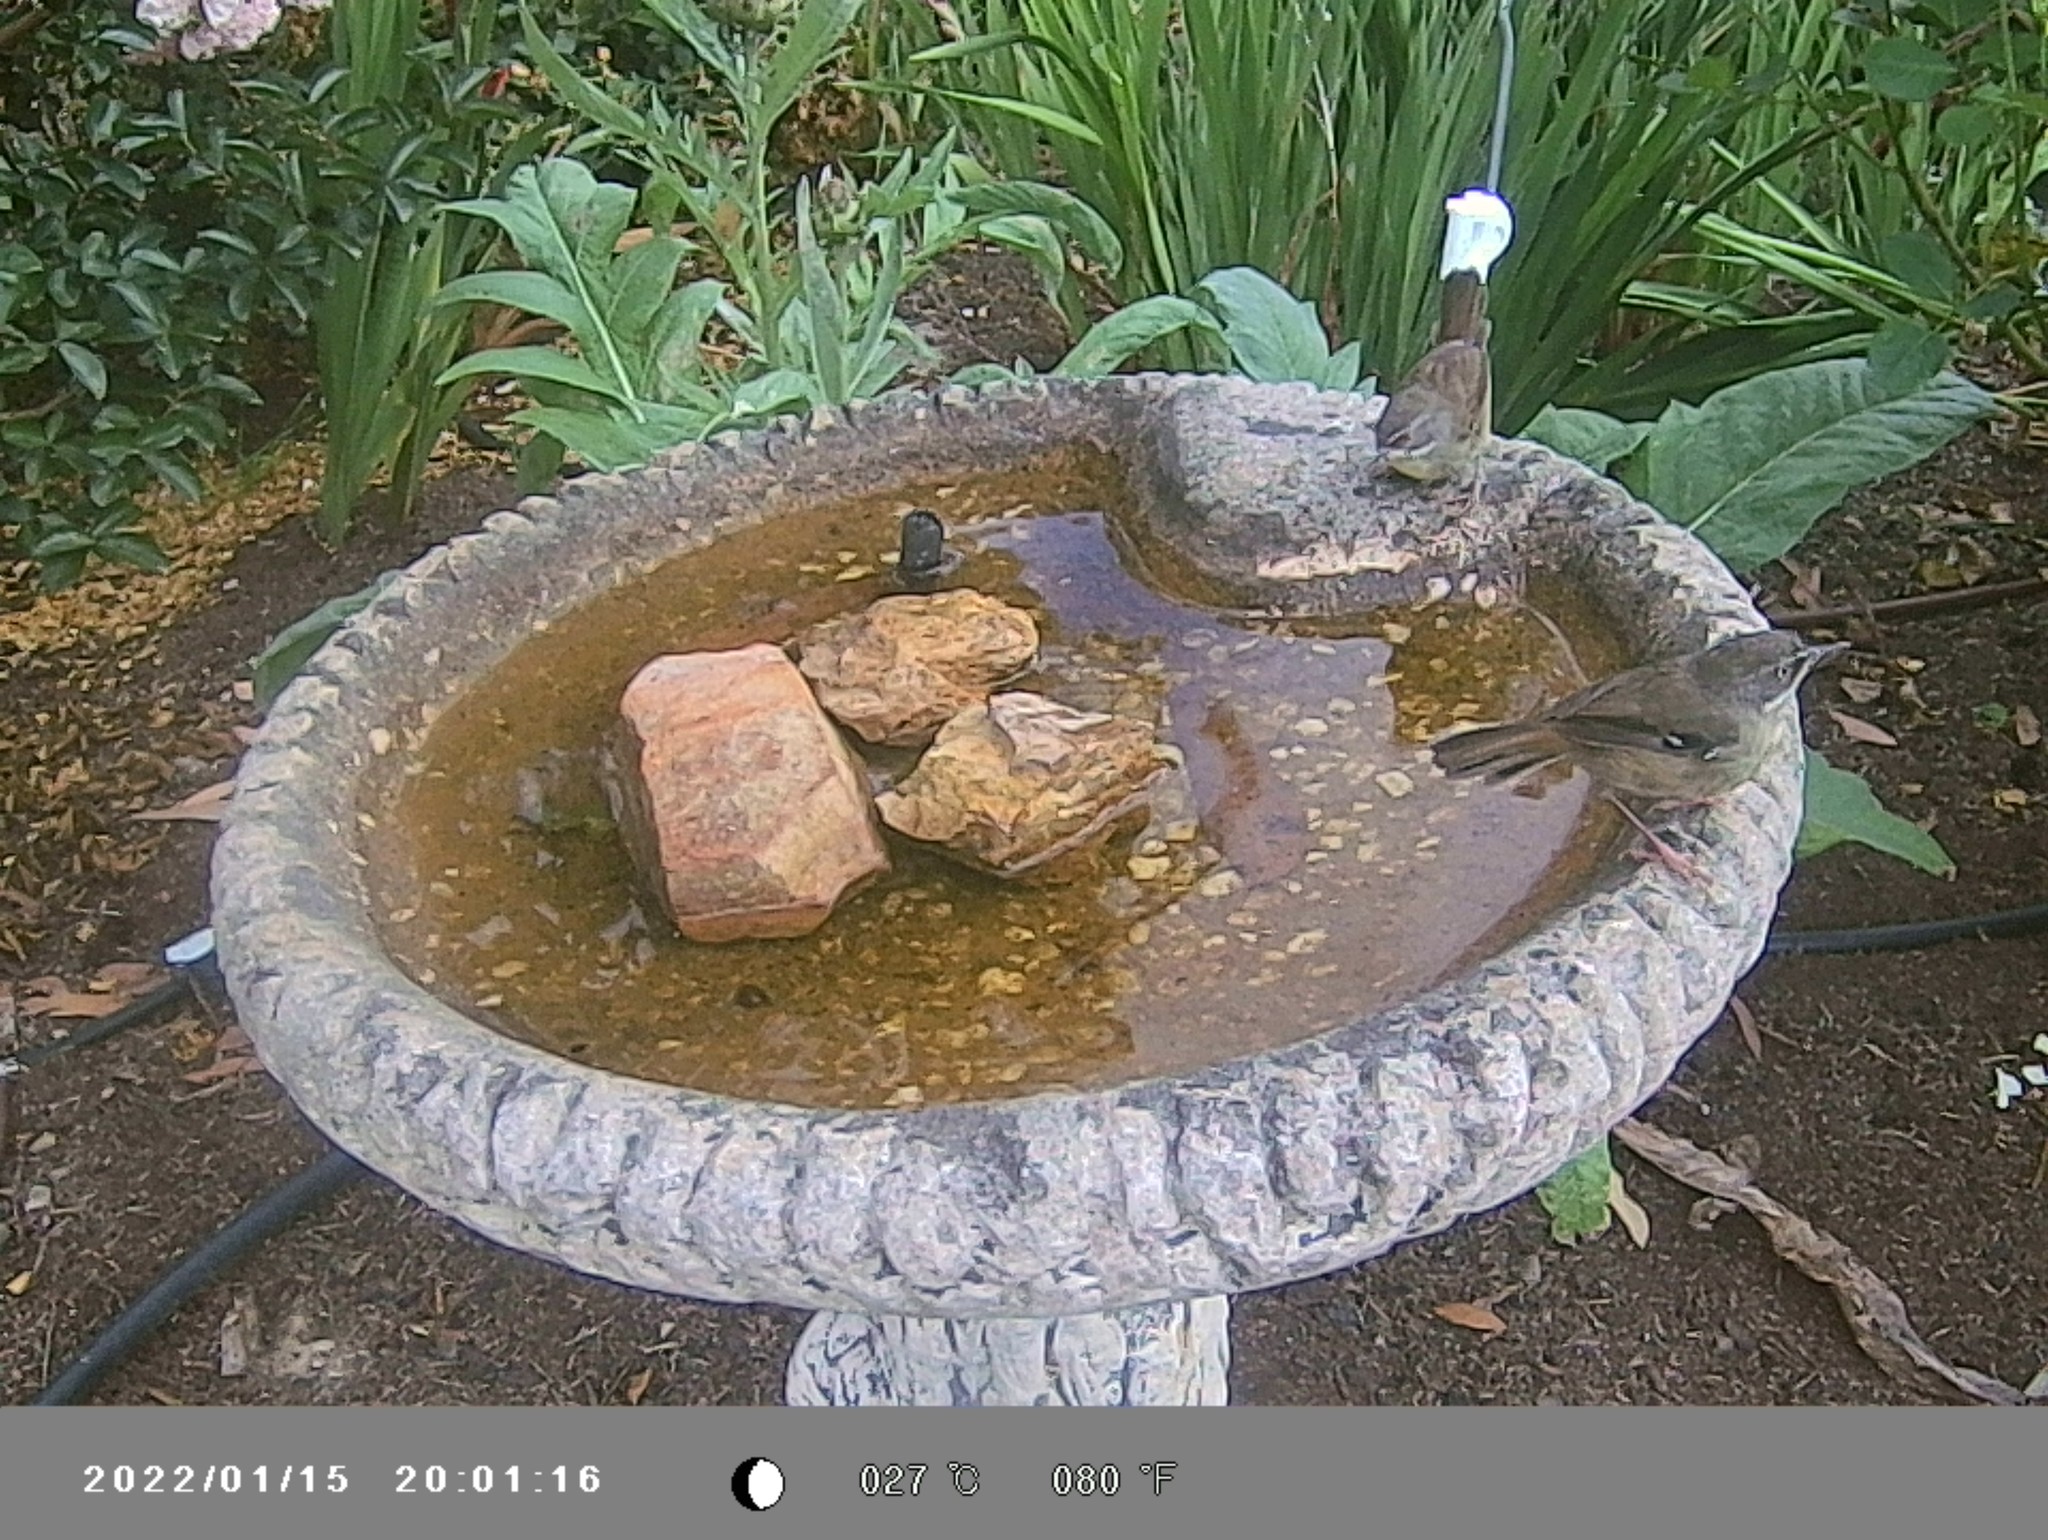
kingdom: Animalia
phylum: Chordata
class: Aves
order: Passeriformes
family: Acanthizidae
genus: Sericornis
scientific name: Sericornis frontalis
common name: White-browed scrubwren
